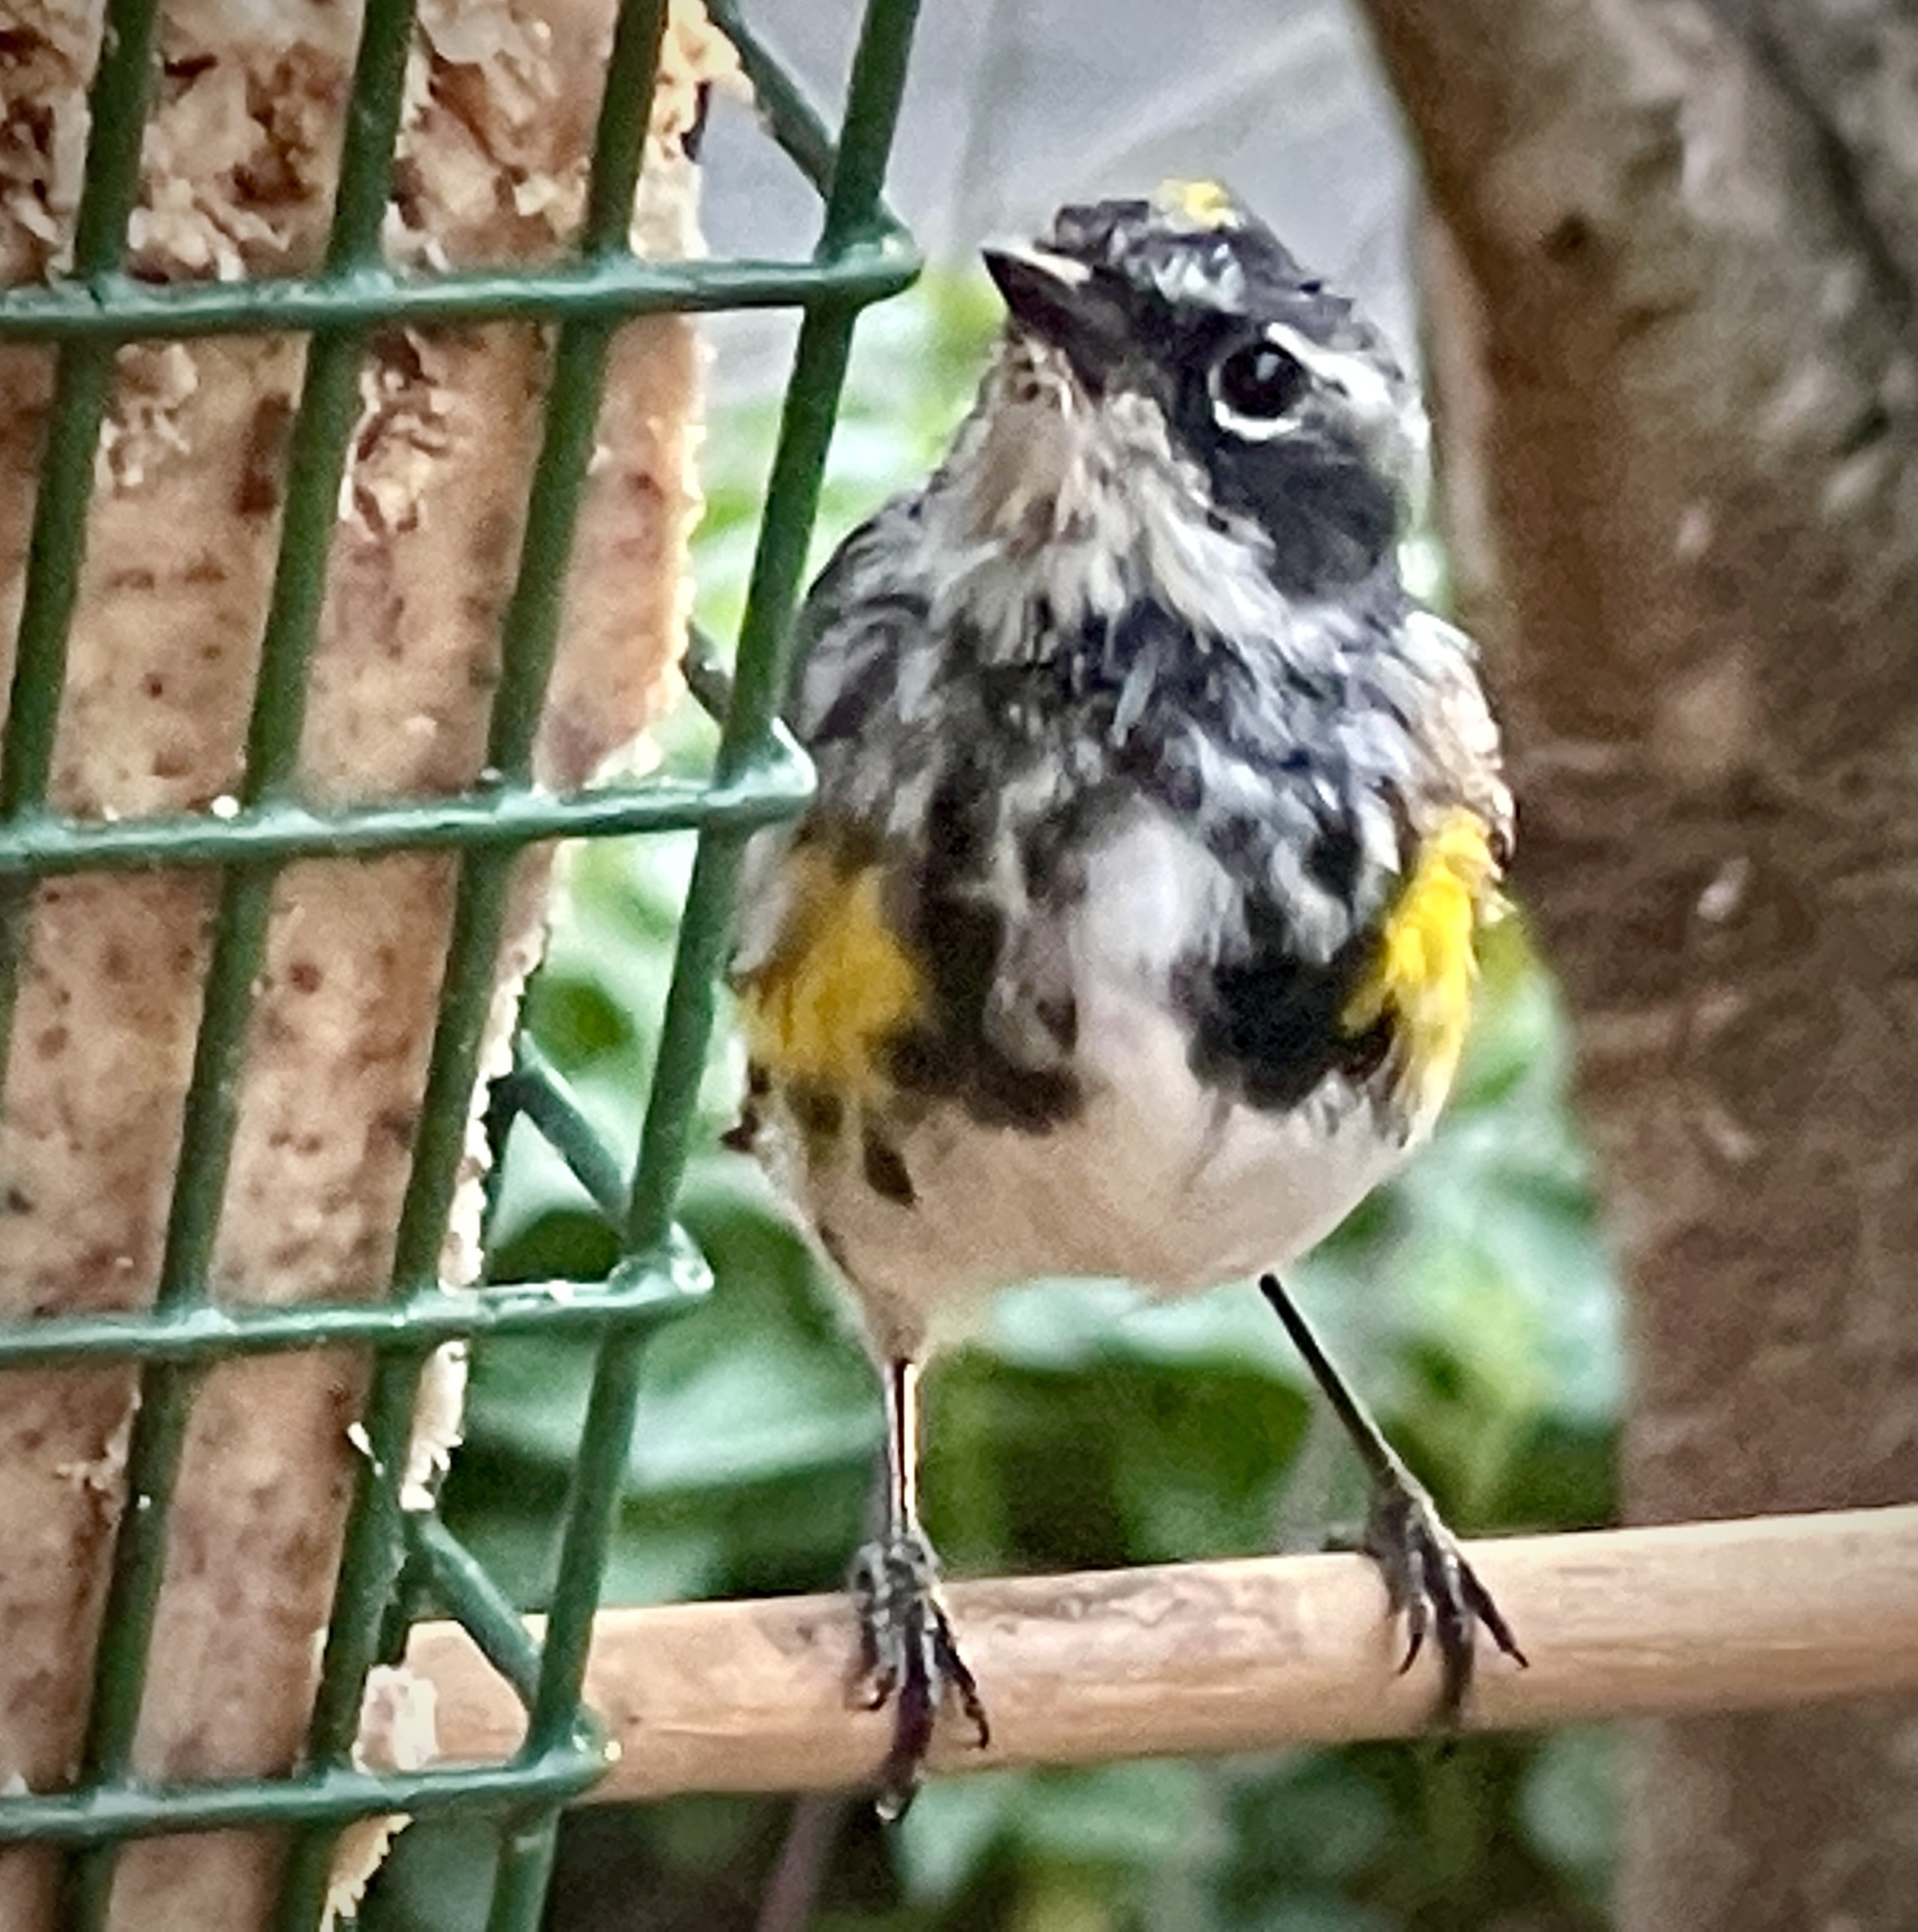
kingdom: Animalia
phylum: Chordata
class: Aves
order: Passeriformes
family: Parulidae
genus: Setophaga
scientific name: Setophaga coronata
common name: Myrtle warbler
